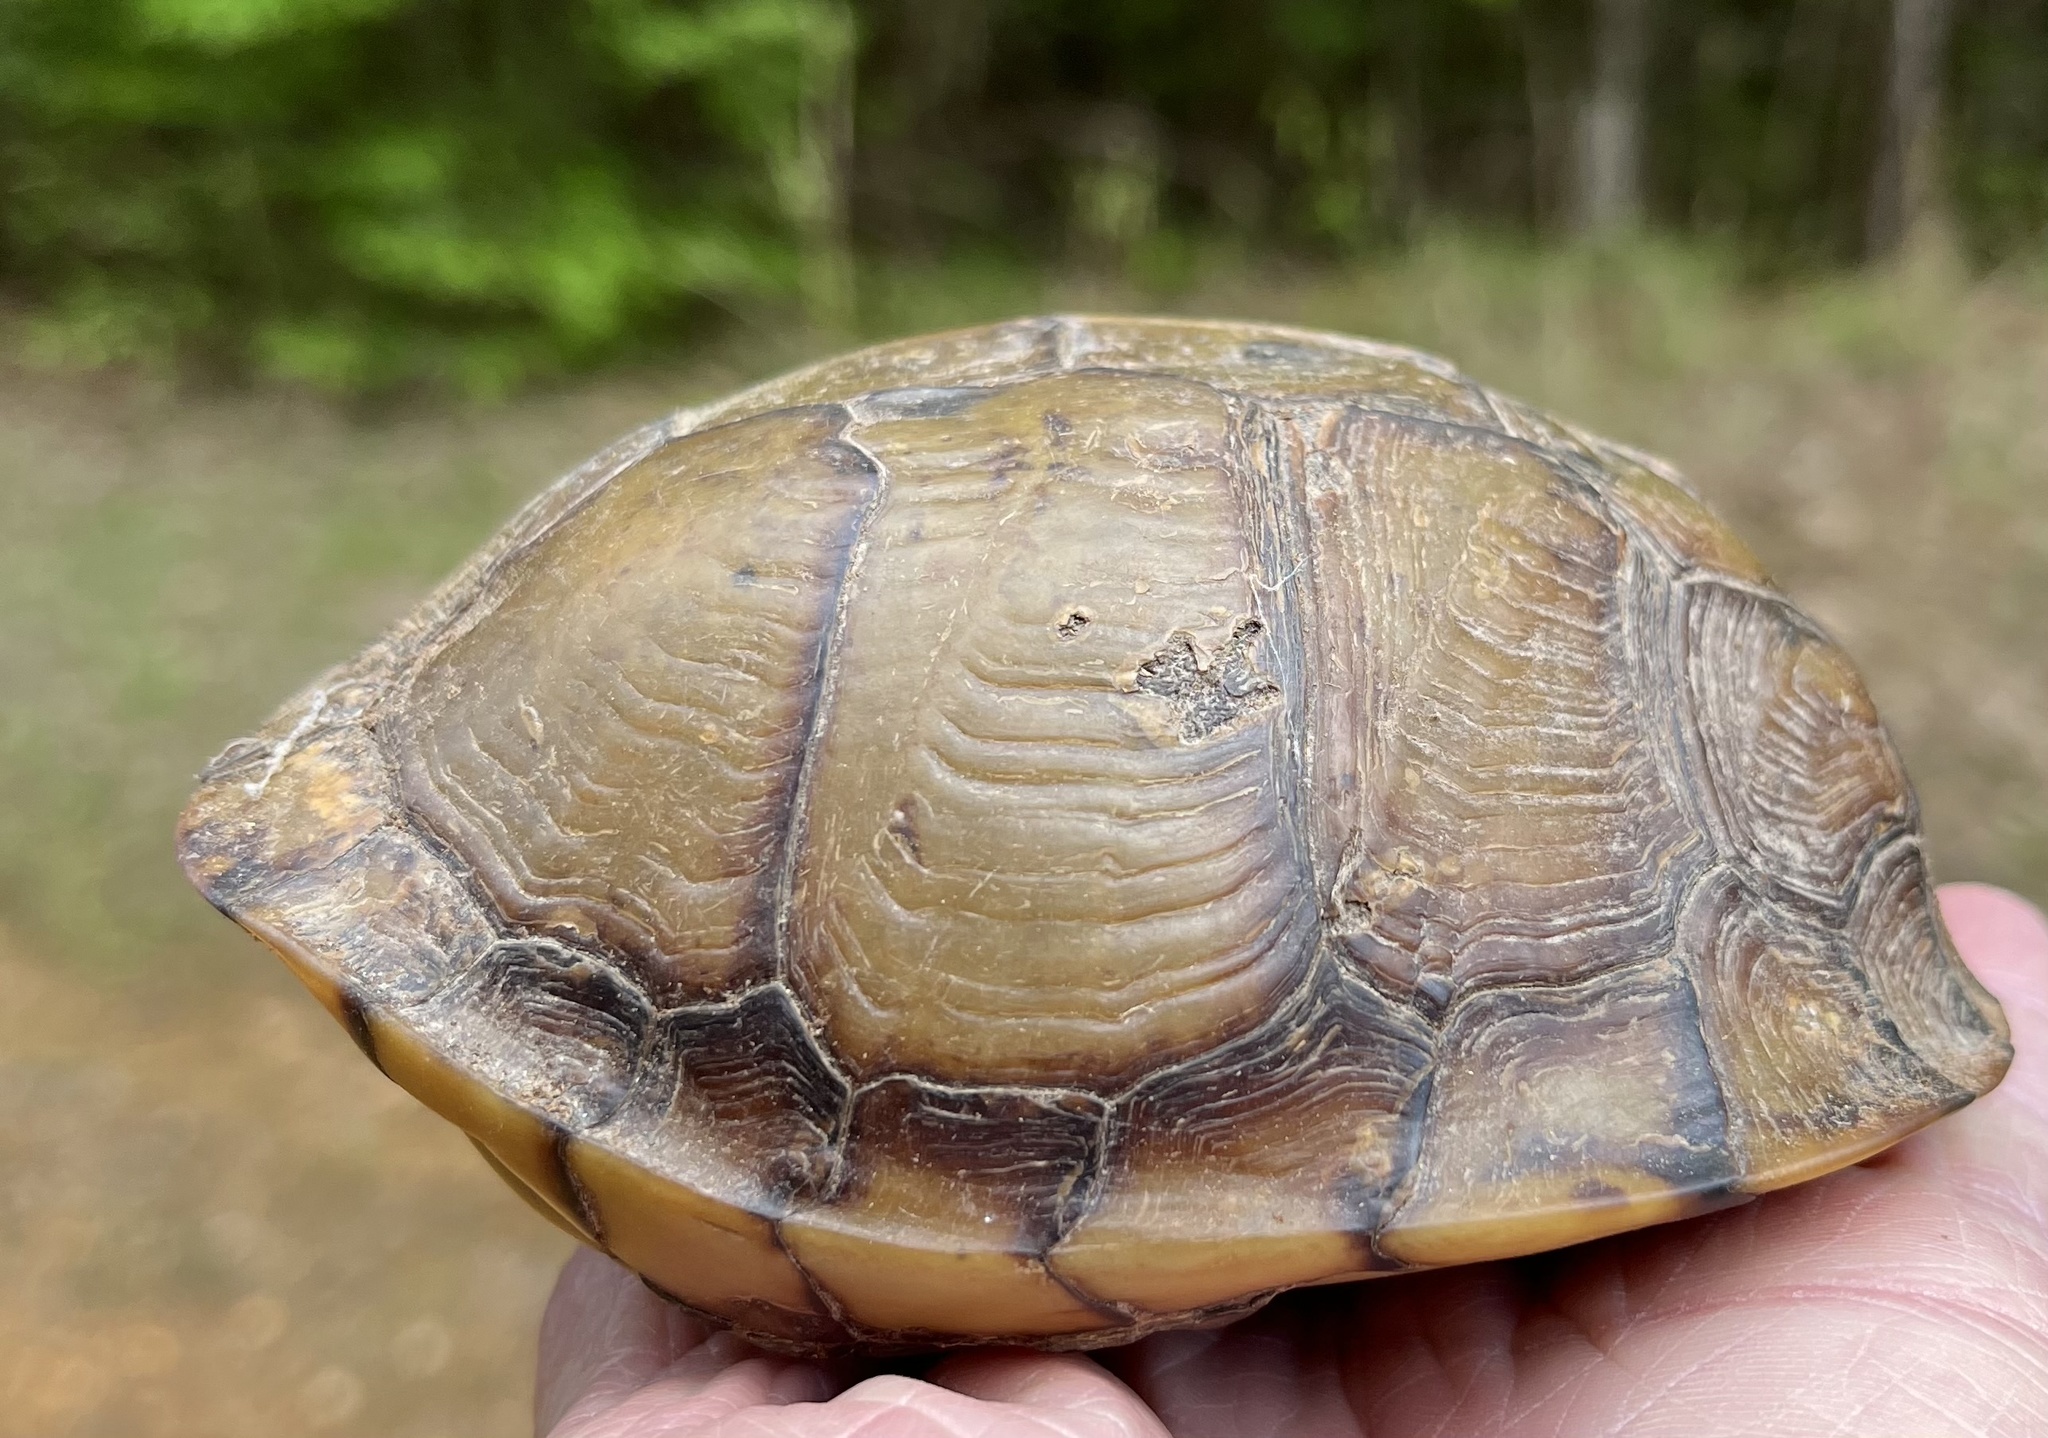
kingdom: Animalia
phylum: Chordata
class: Testudines
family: Emydidae
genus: Terrapene
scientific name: Terrapene carolina
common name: Common box turtle
